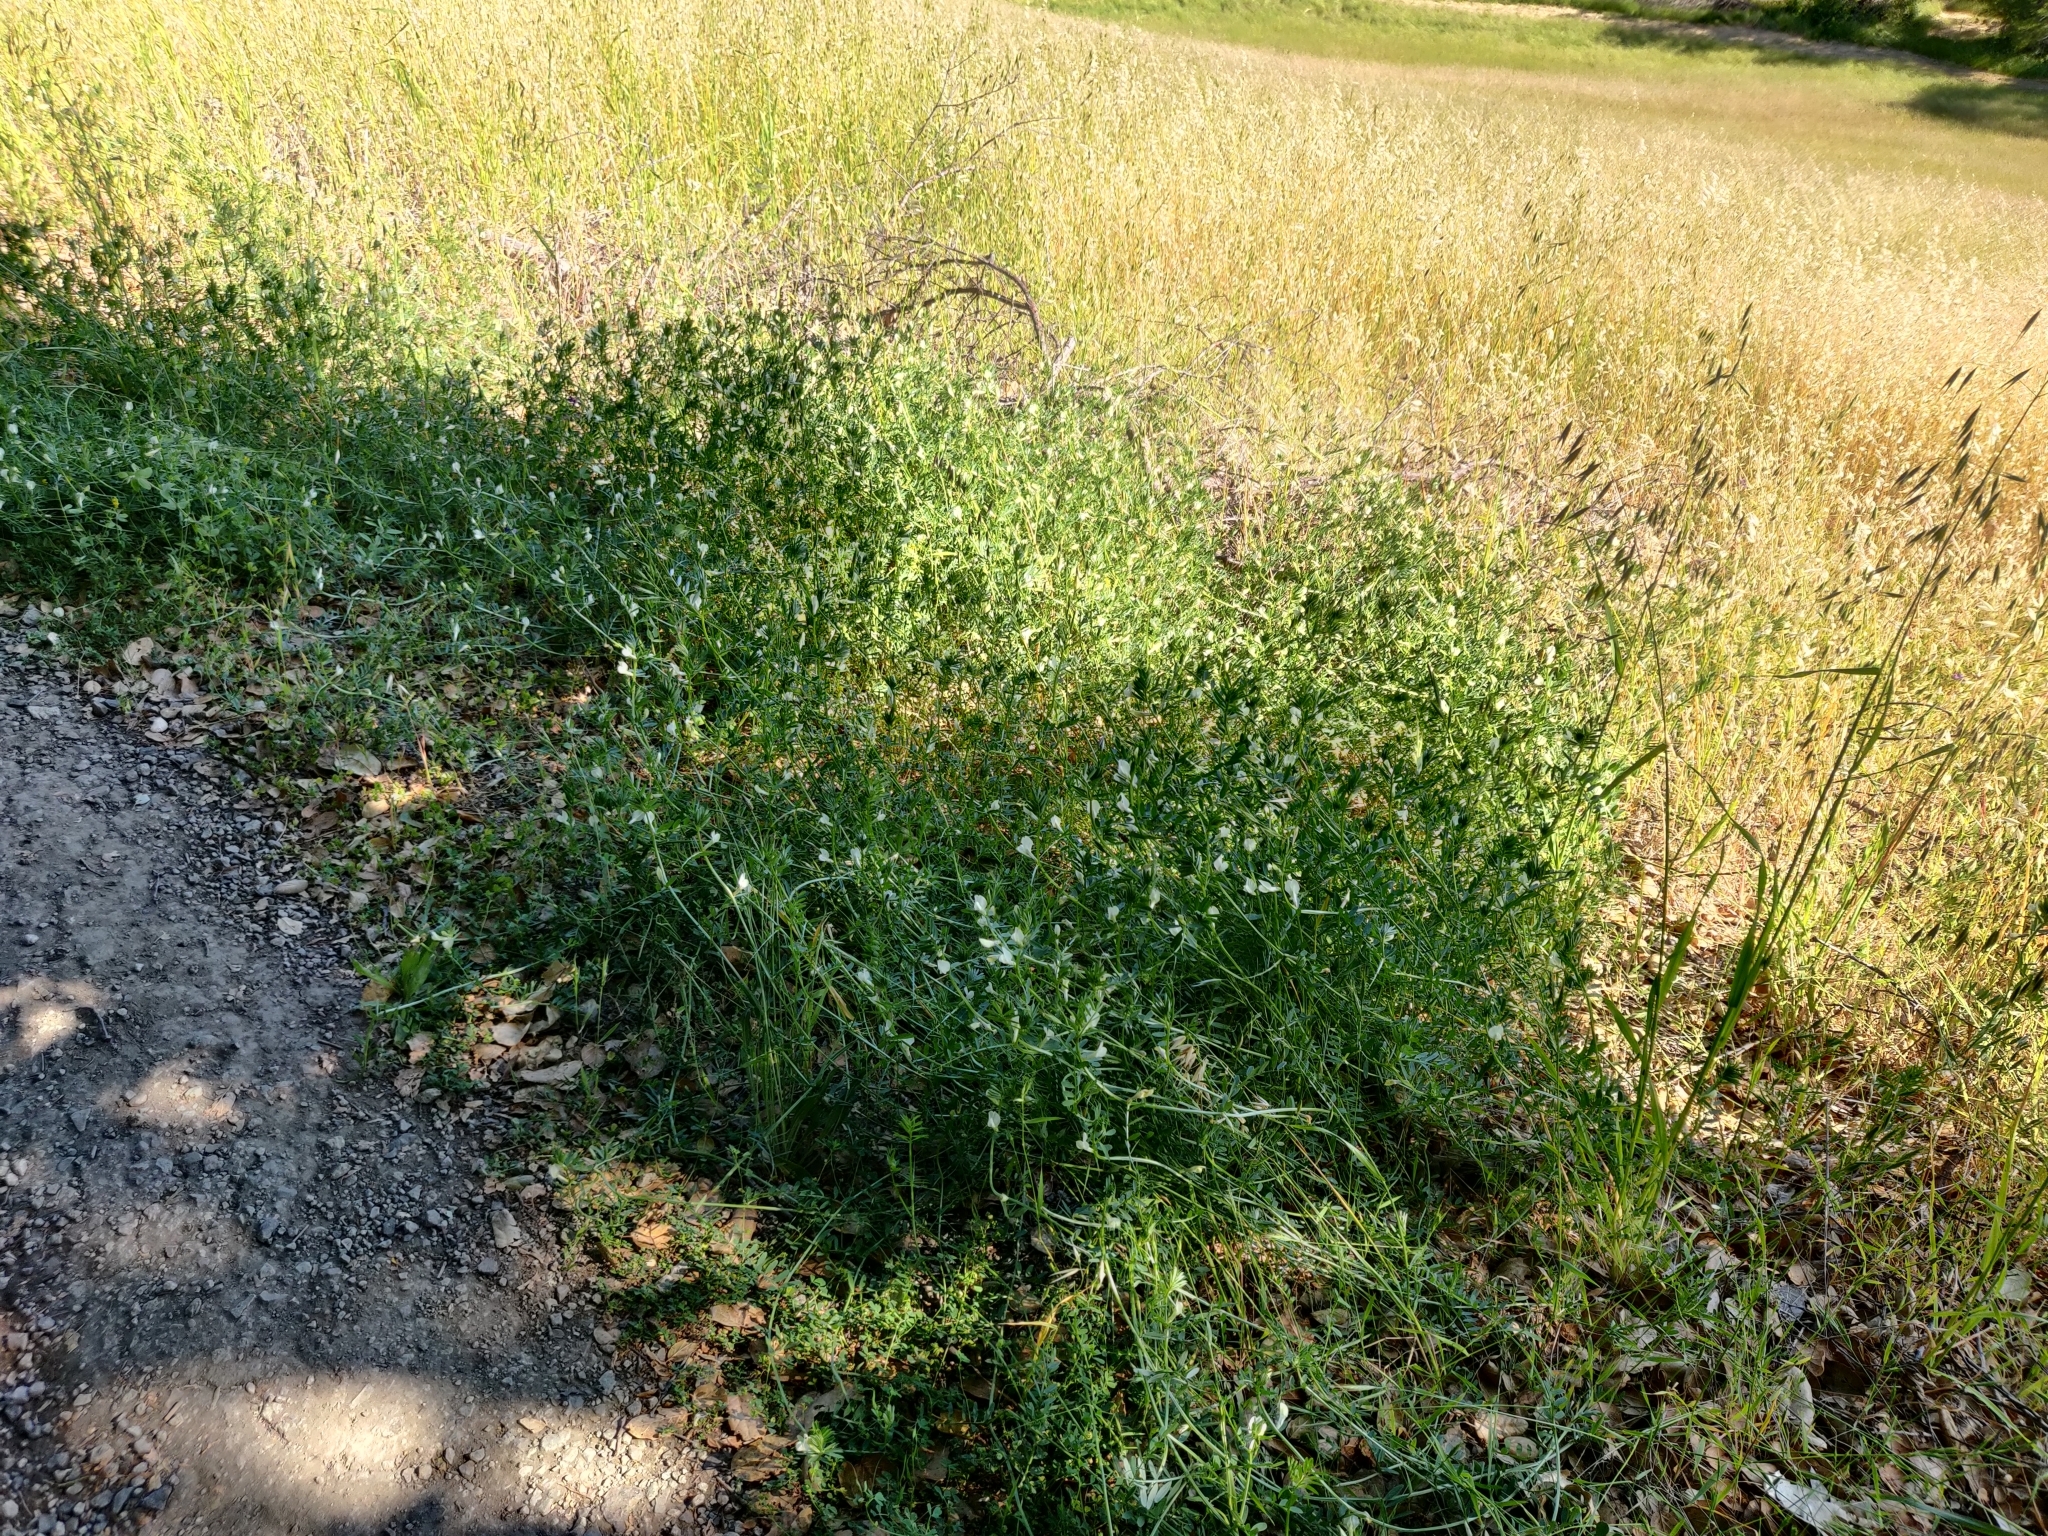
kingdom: Plantae
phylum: Tracheophyta
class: Magnoliopsida
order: Fabales
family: Fabaceae
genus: Vicia
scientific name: Vicia lutea
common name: Smooth yellow vetch
